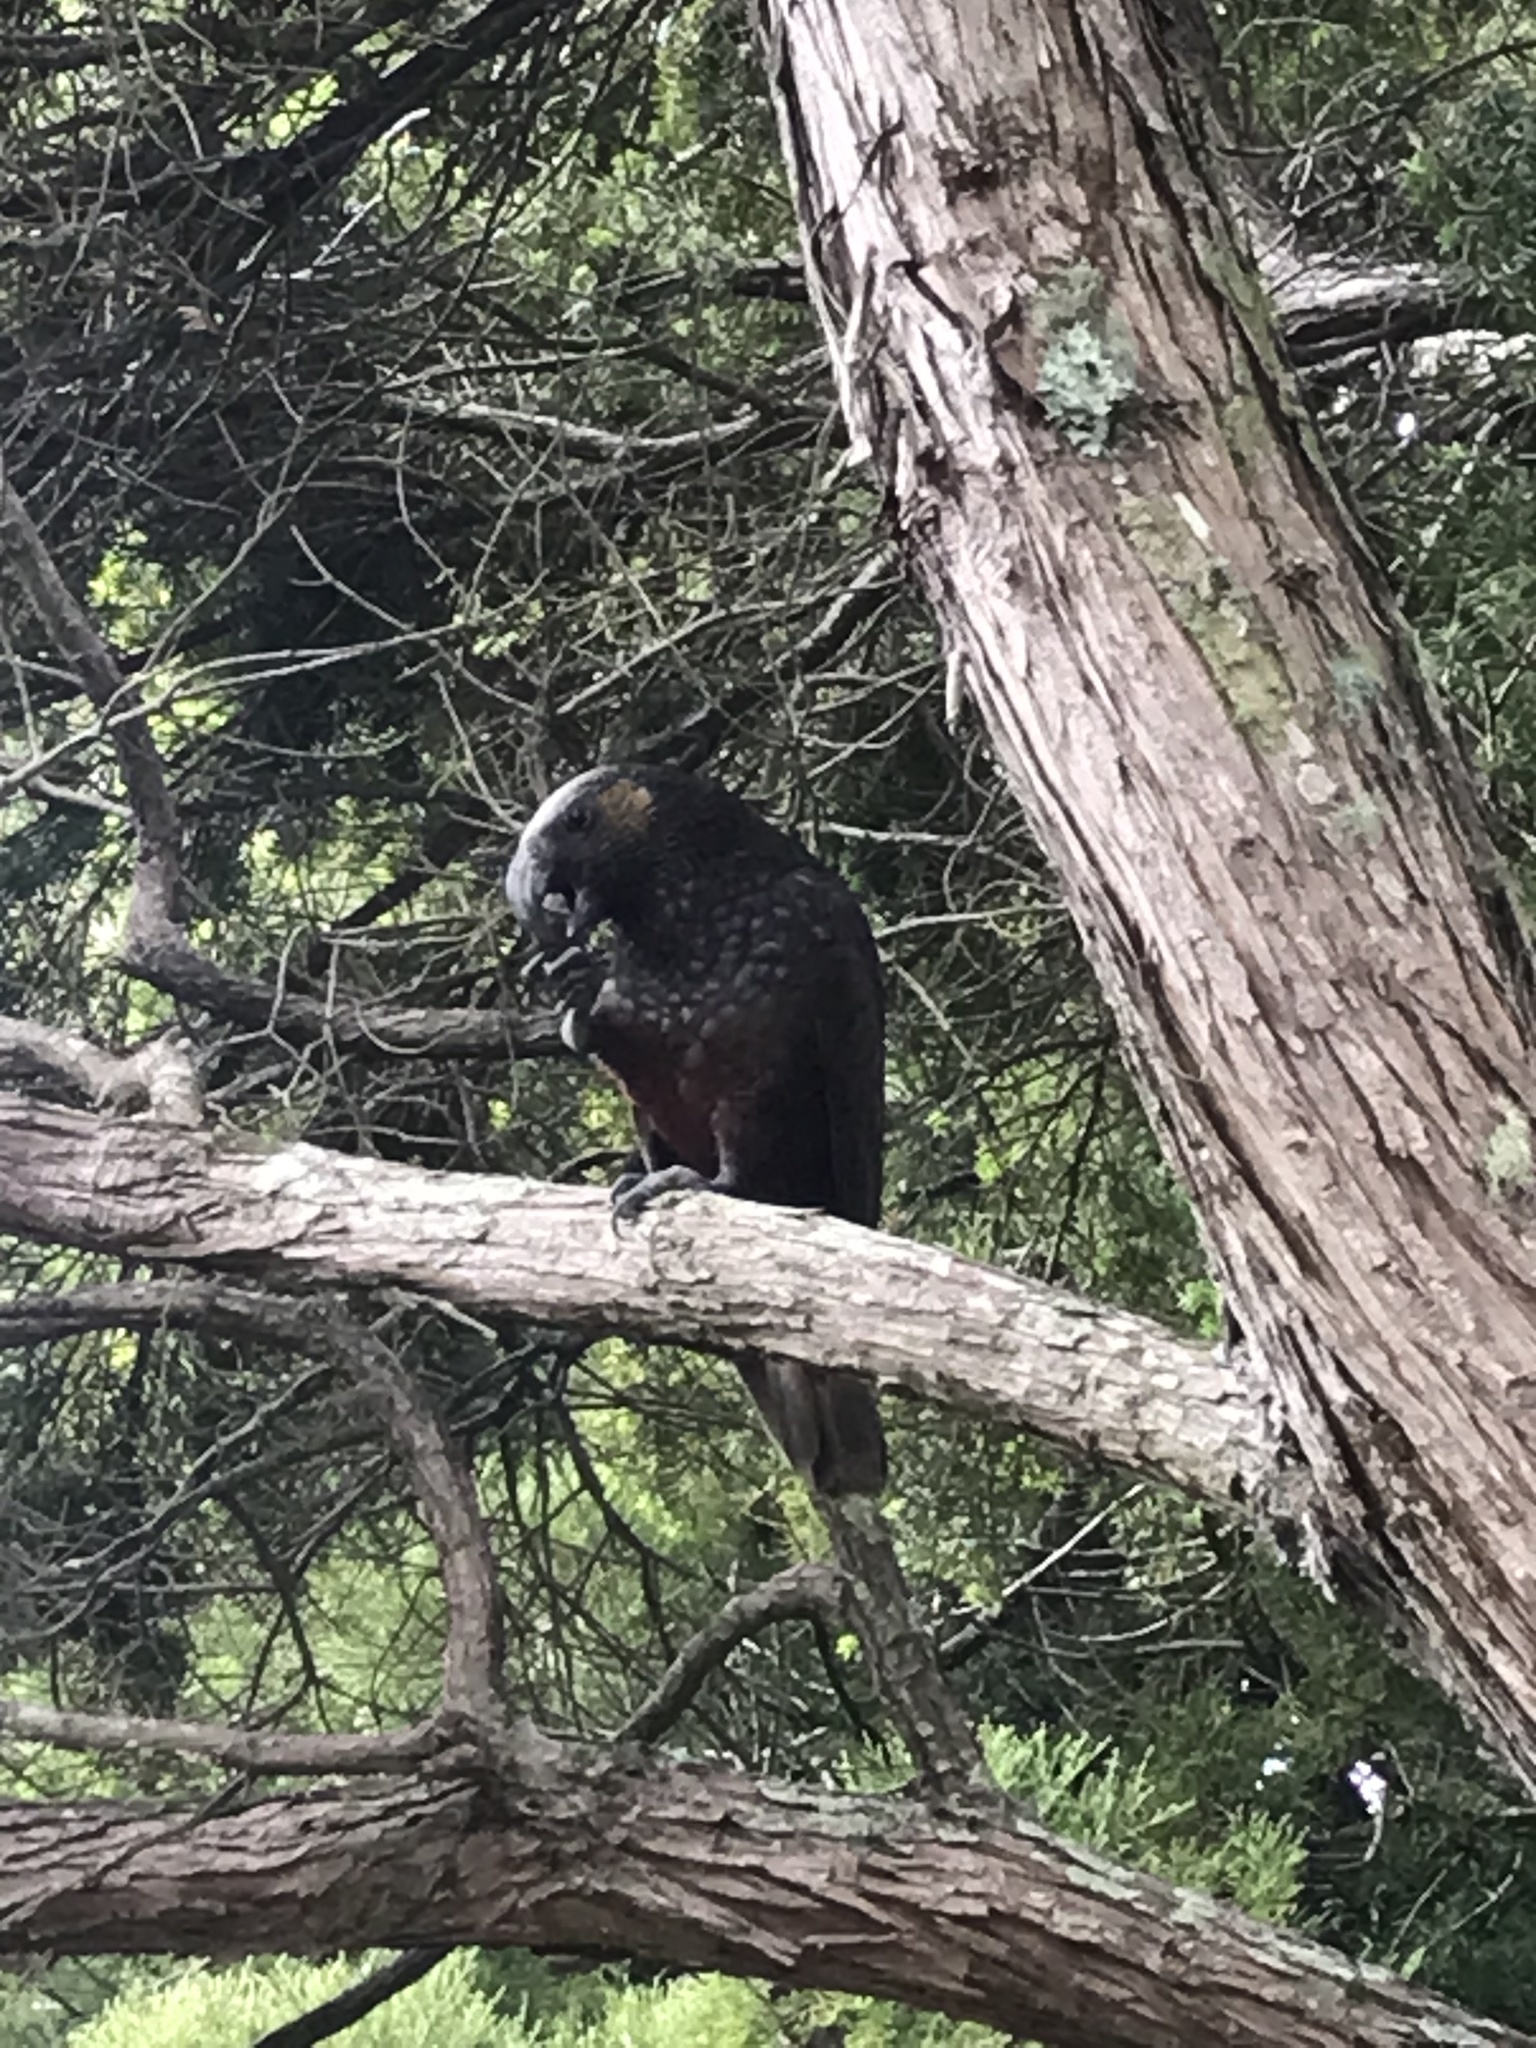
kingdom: Animalia
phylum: Chordata
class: Aves
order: Psittaciformes
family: Psittacidae
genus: Nestor
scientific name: Nestor meridionalis
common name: New zealand kaka
